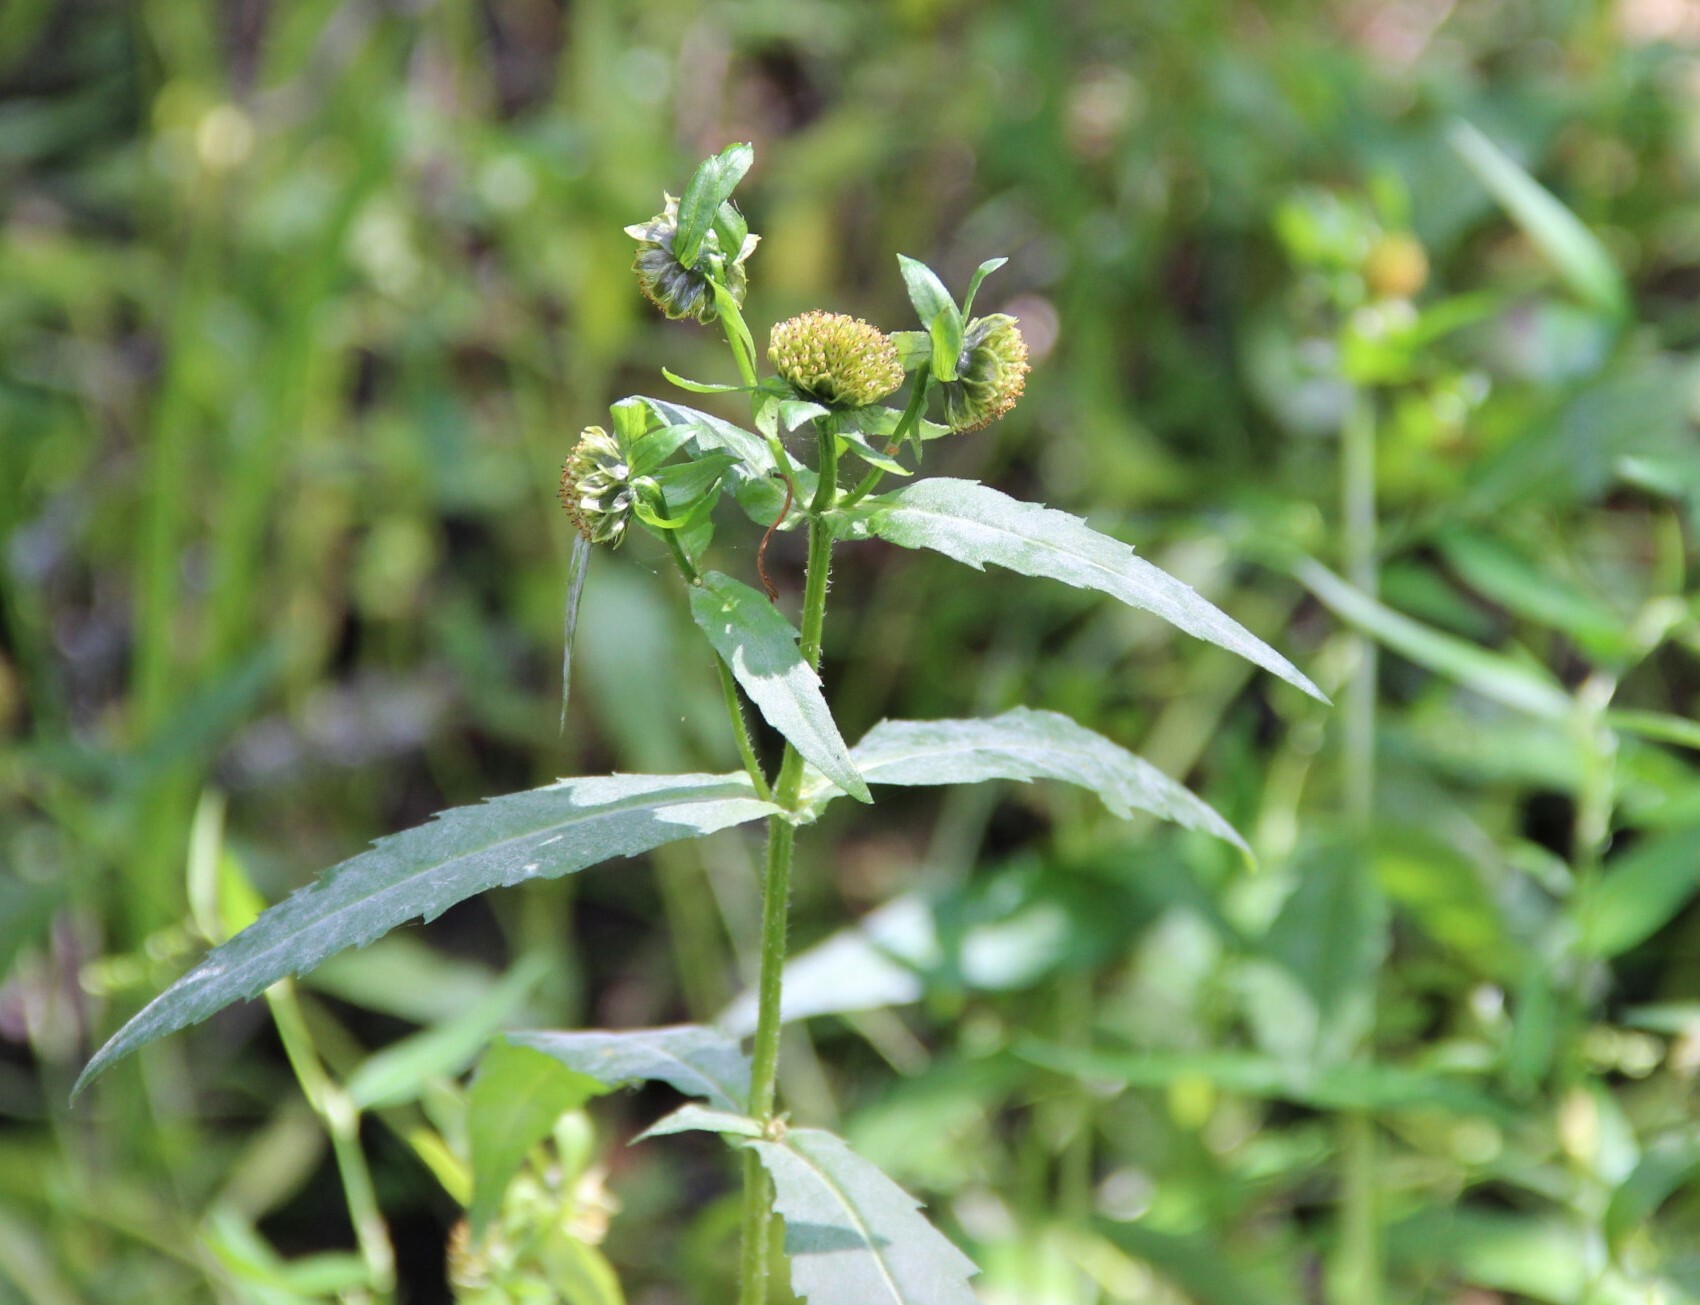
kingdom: Plantae
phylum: Tracheophyta
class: Magnoliopsida
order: Asterales
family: Asteraceae
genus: Bidens
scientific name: Bidens cernua
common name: Nodding bur-marigold
